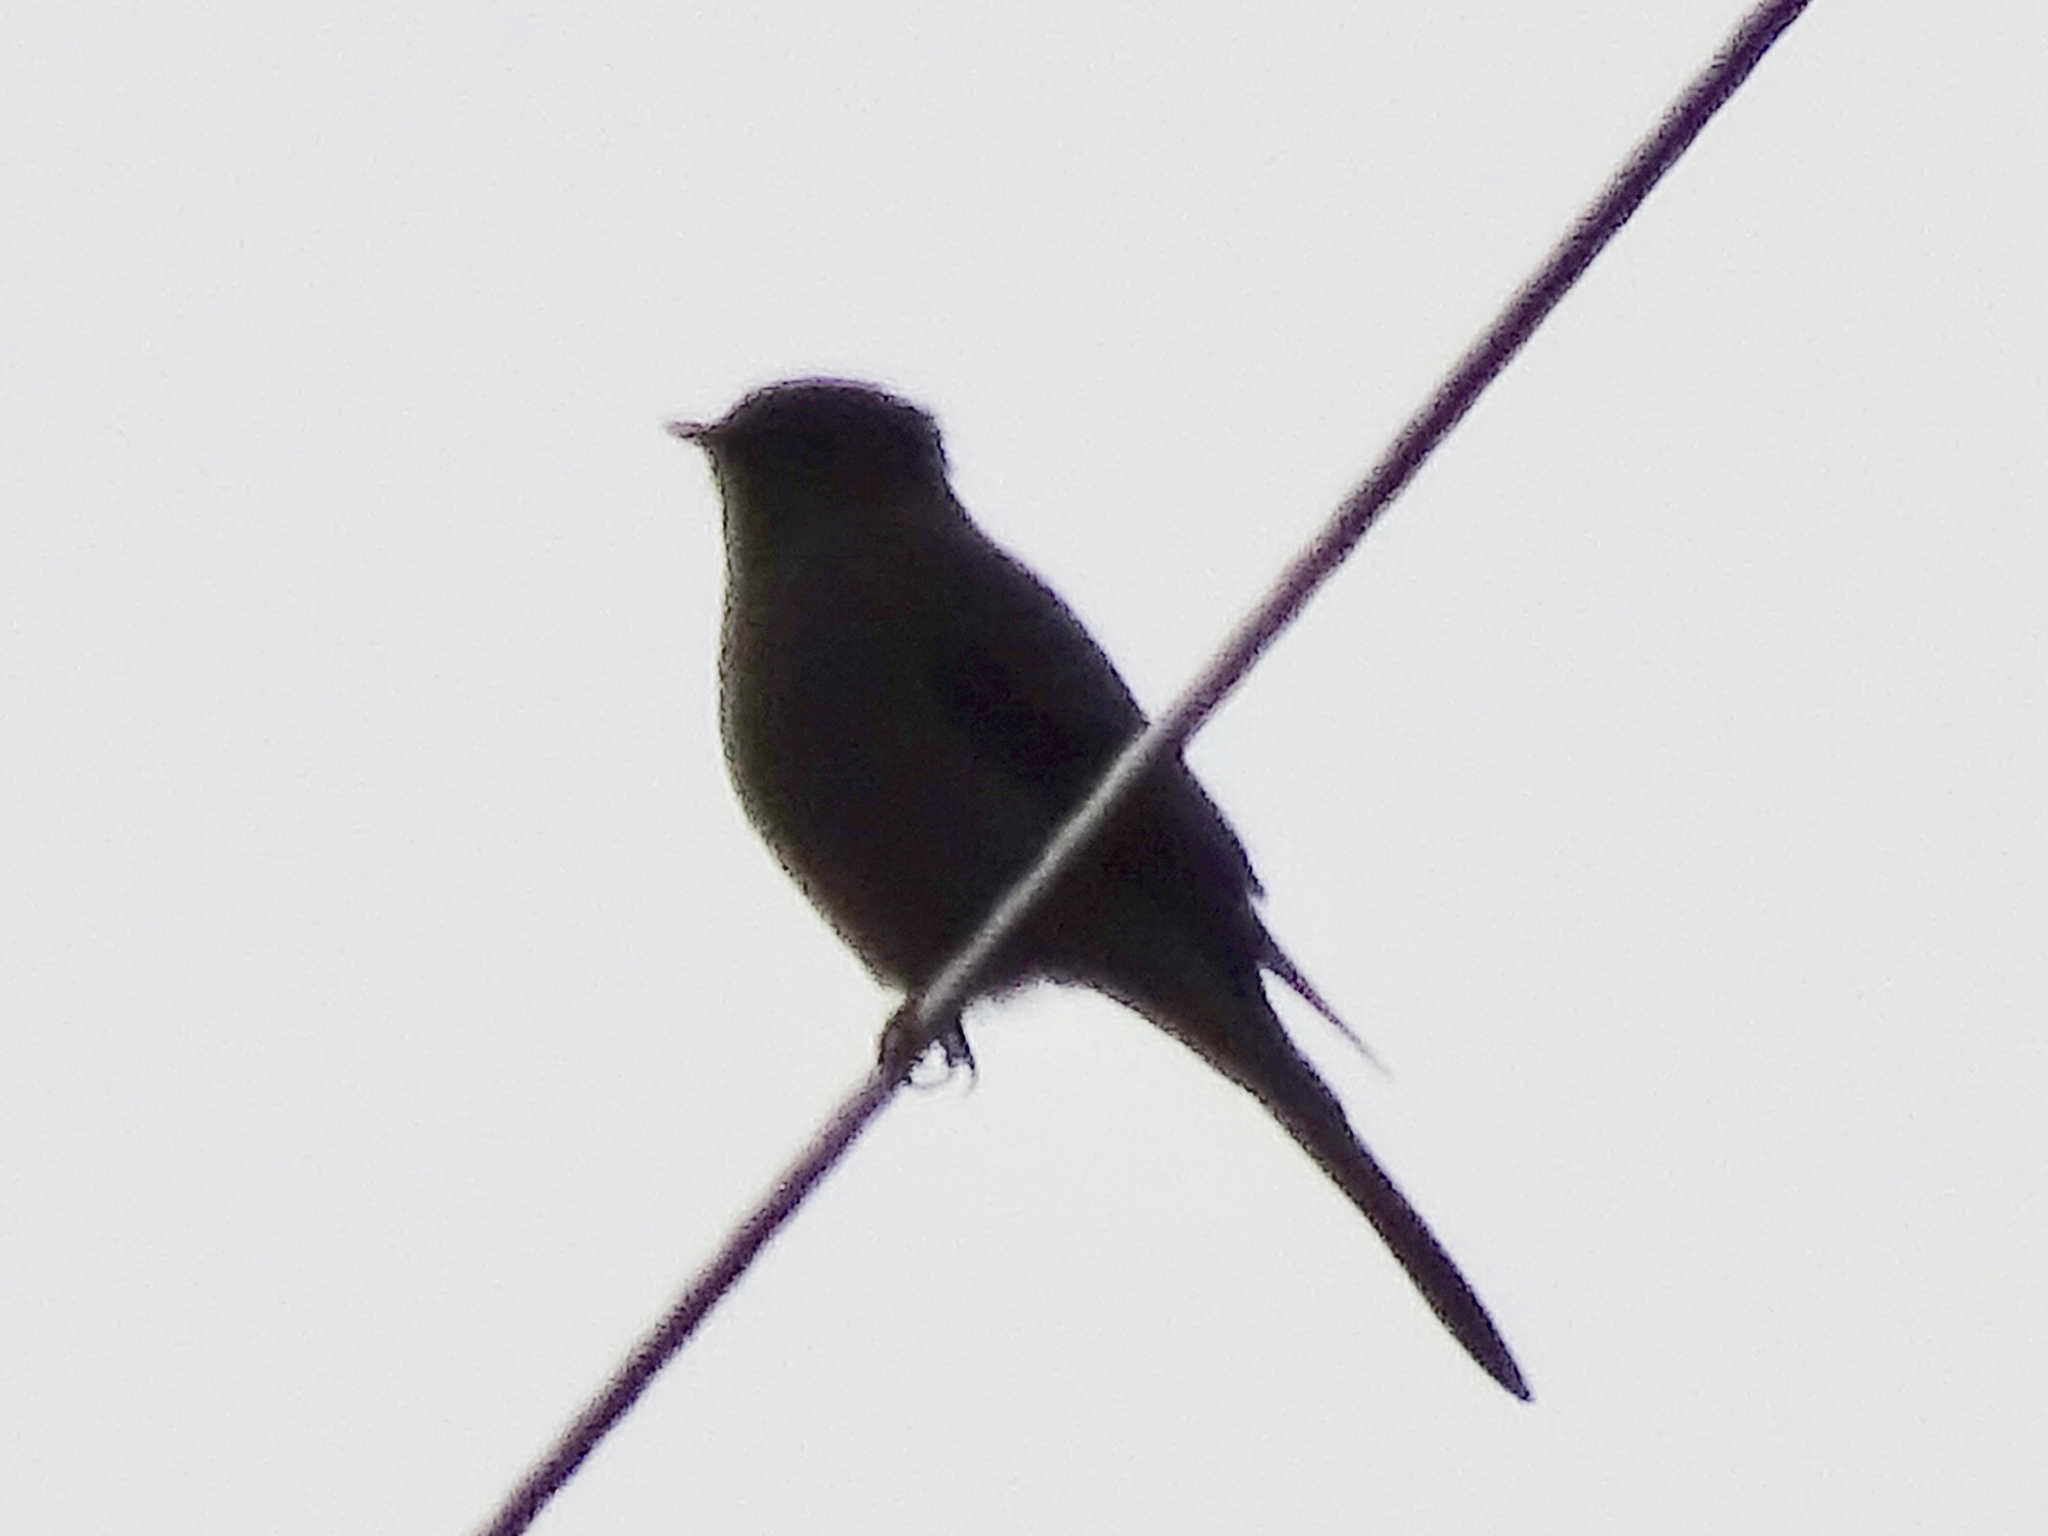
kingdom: Animalia
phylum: Chordata
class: Aves
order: Passeriformes
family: Turdidae
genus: Myadestes
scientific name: Myadestes townsendi
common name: Townsend's solitaire
